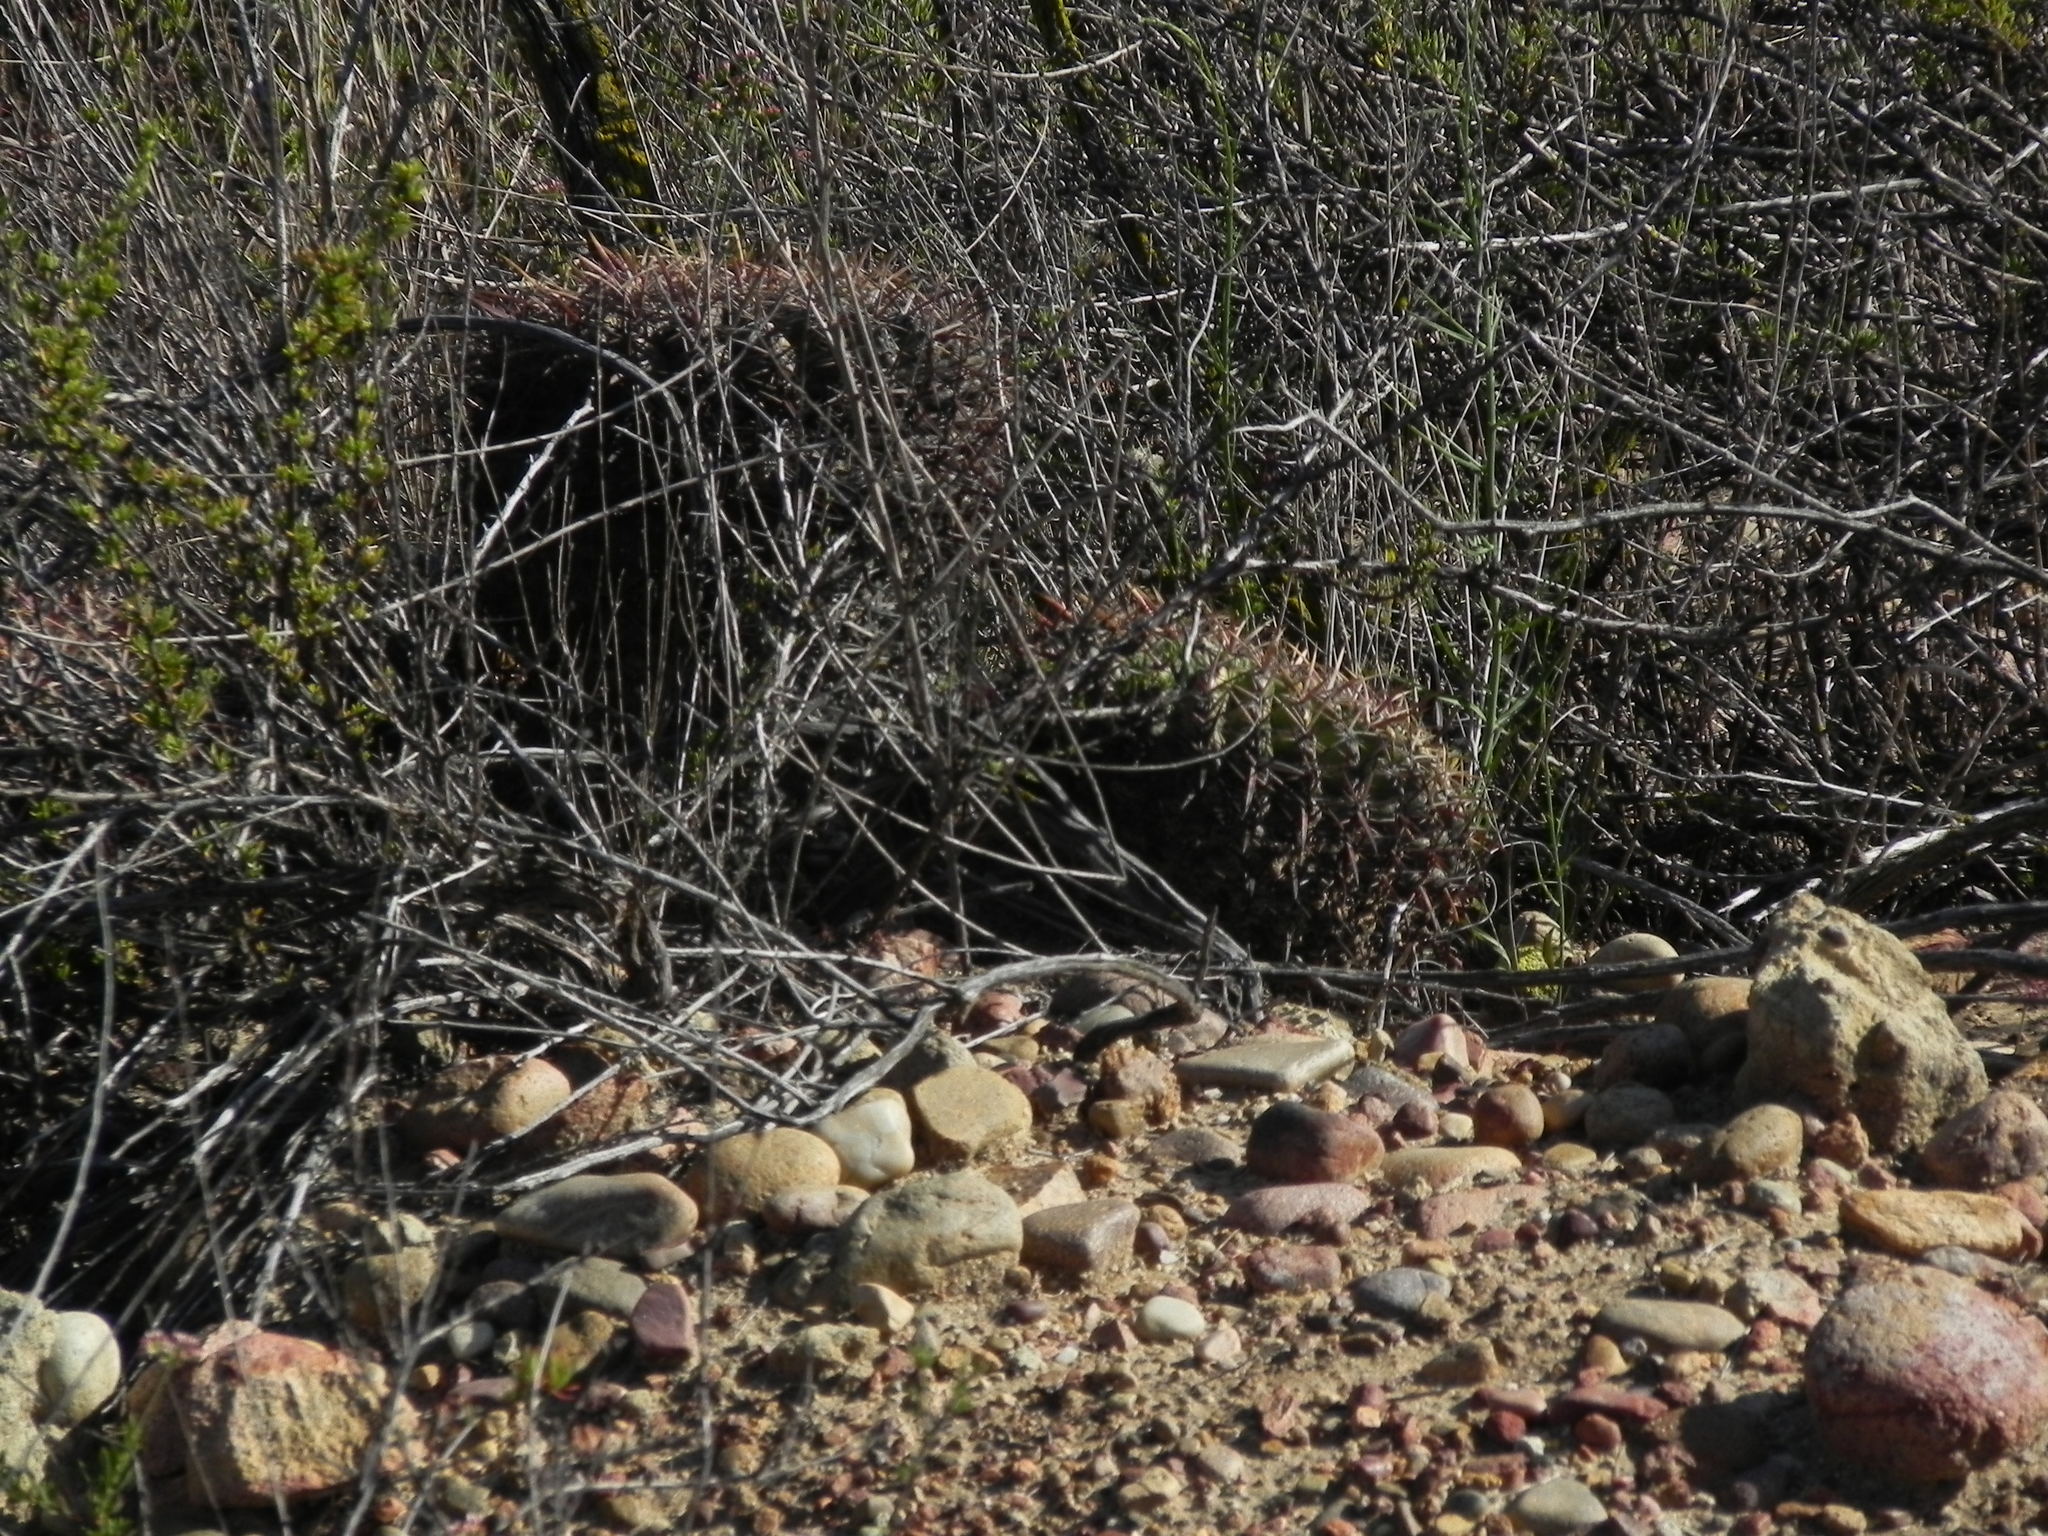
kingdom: Plantae
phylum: Tracheophyta
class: Magnoliopsida
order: Caryophyllales
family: Cactaceae
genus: Ferocactus
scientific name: Ferocactus viridescens
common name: San diego barrel cactus
